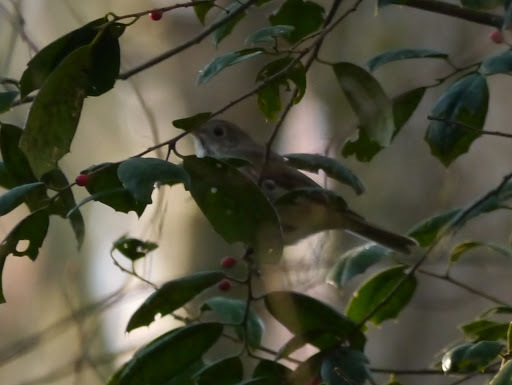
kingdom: Animalia
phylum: Chordata
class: Aves
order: Passeriformes
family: Turdidae
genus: Catharus
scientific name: Catharus guttatus
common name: Hermit thrush
